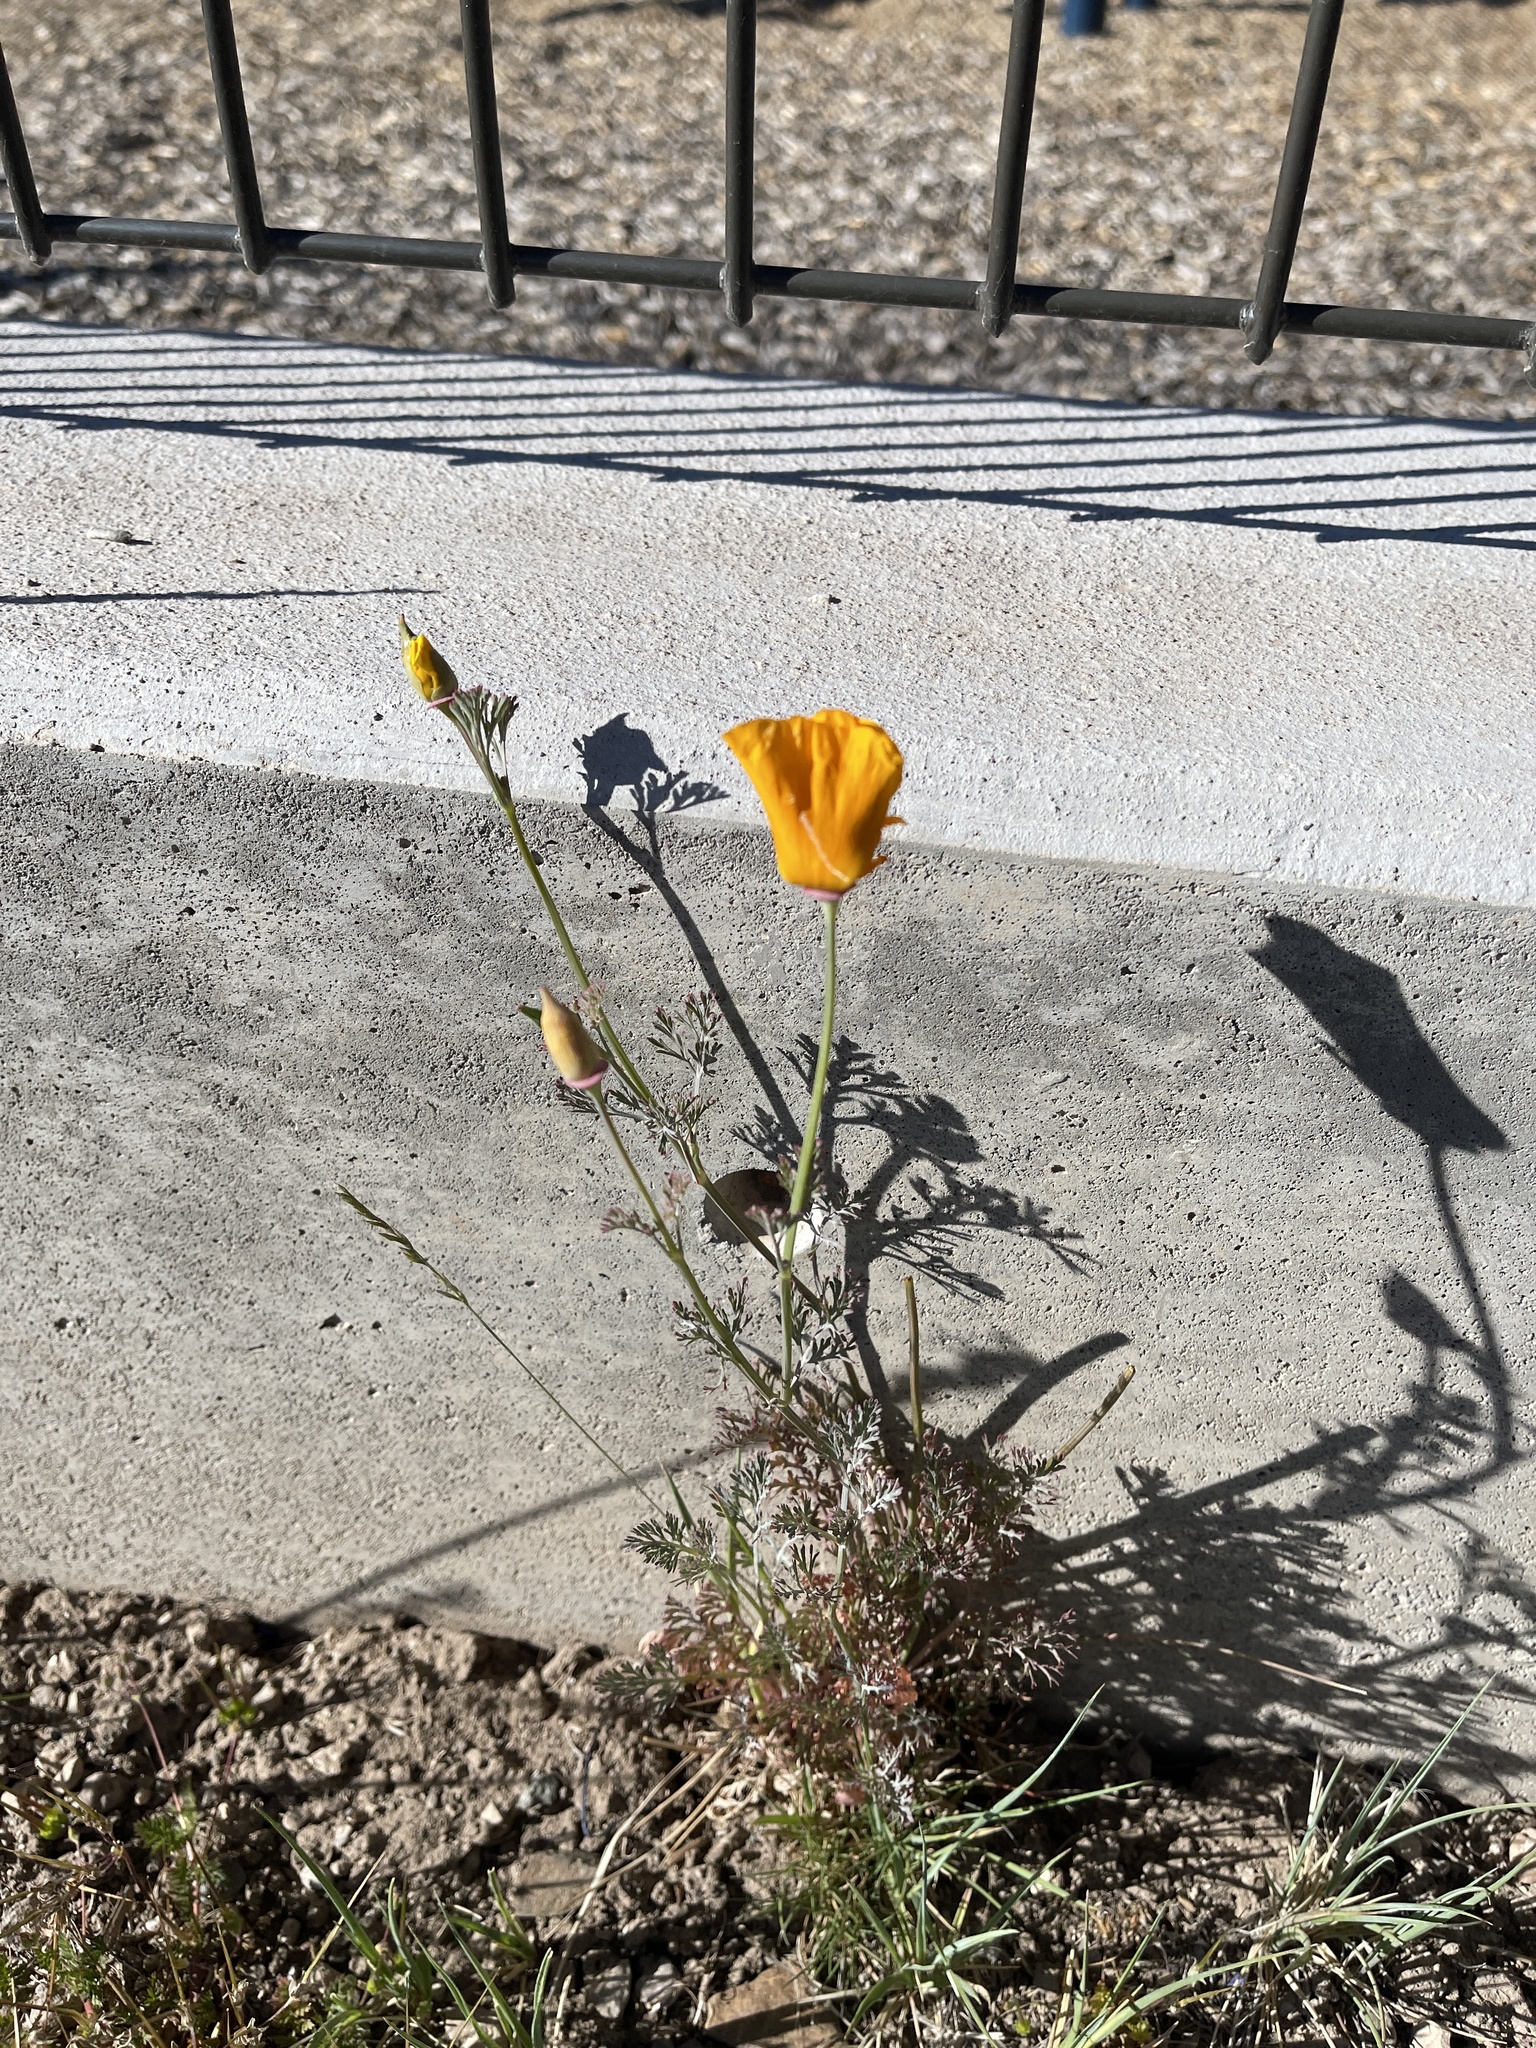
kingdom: Plantae
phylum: Tracheophyta
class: Magnoliopsida
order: Ranunculales
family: Papaveraceae
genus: Eschscholzia
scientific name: Eschscholzia californica
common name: California poppy
